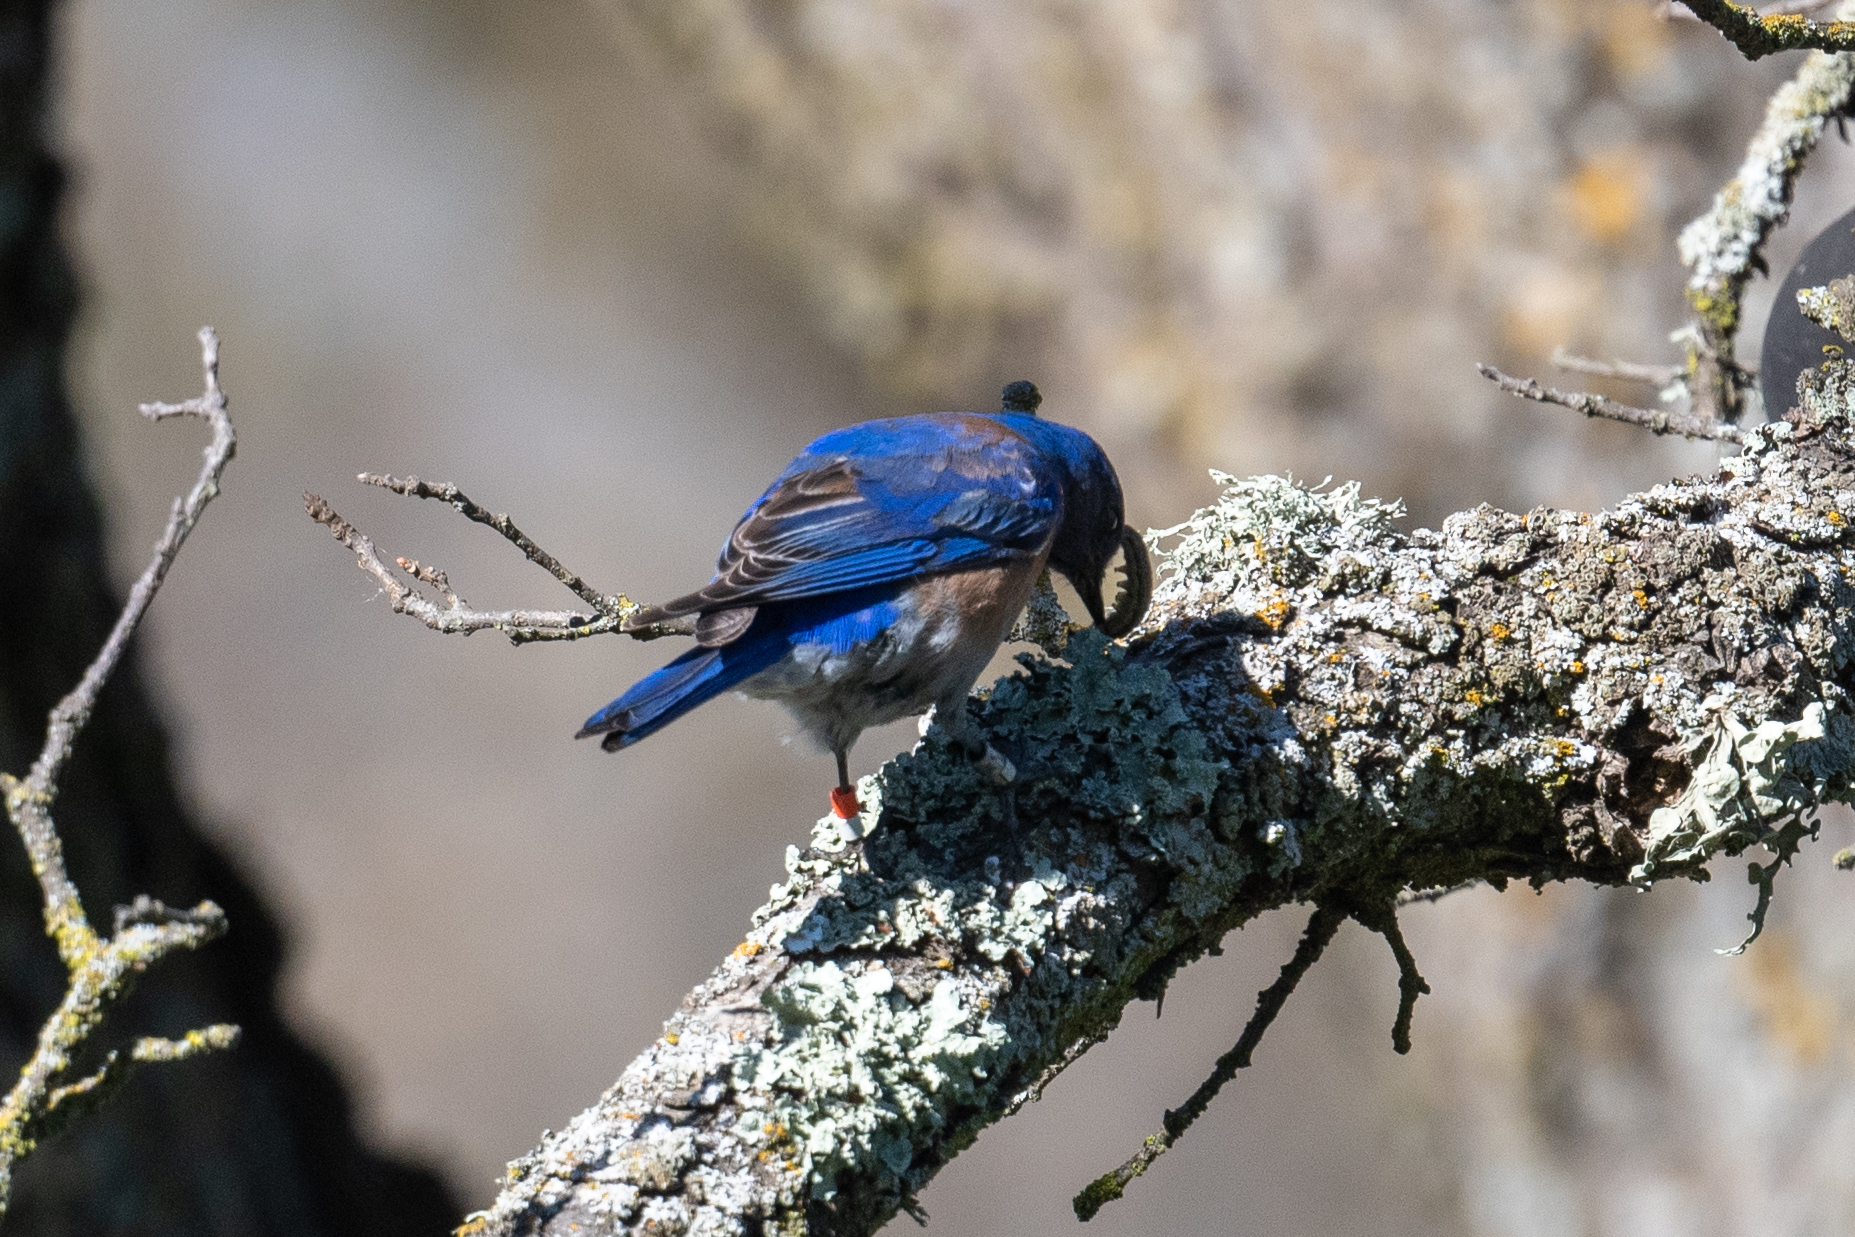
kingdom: Animalia
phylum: Chordata
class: Aves
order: Passeriformes
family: Turdidae
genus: Sialia
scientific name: Sialia mexicana
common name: Western bluebird
